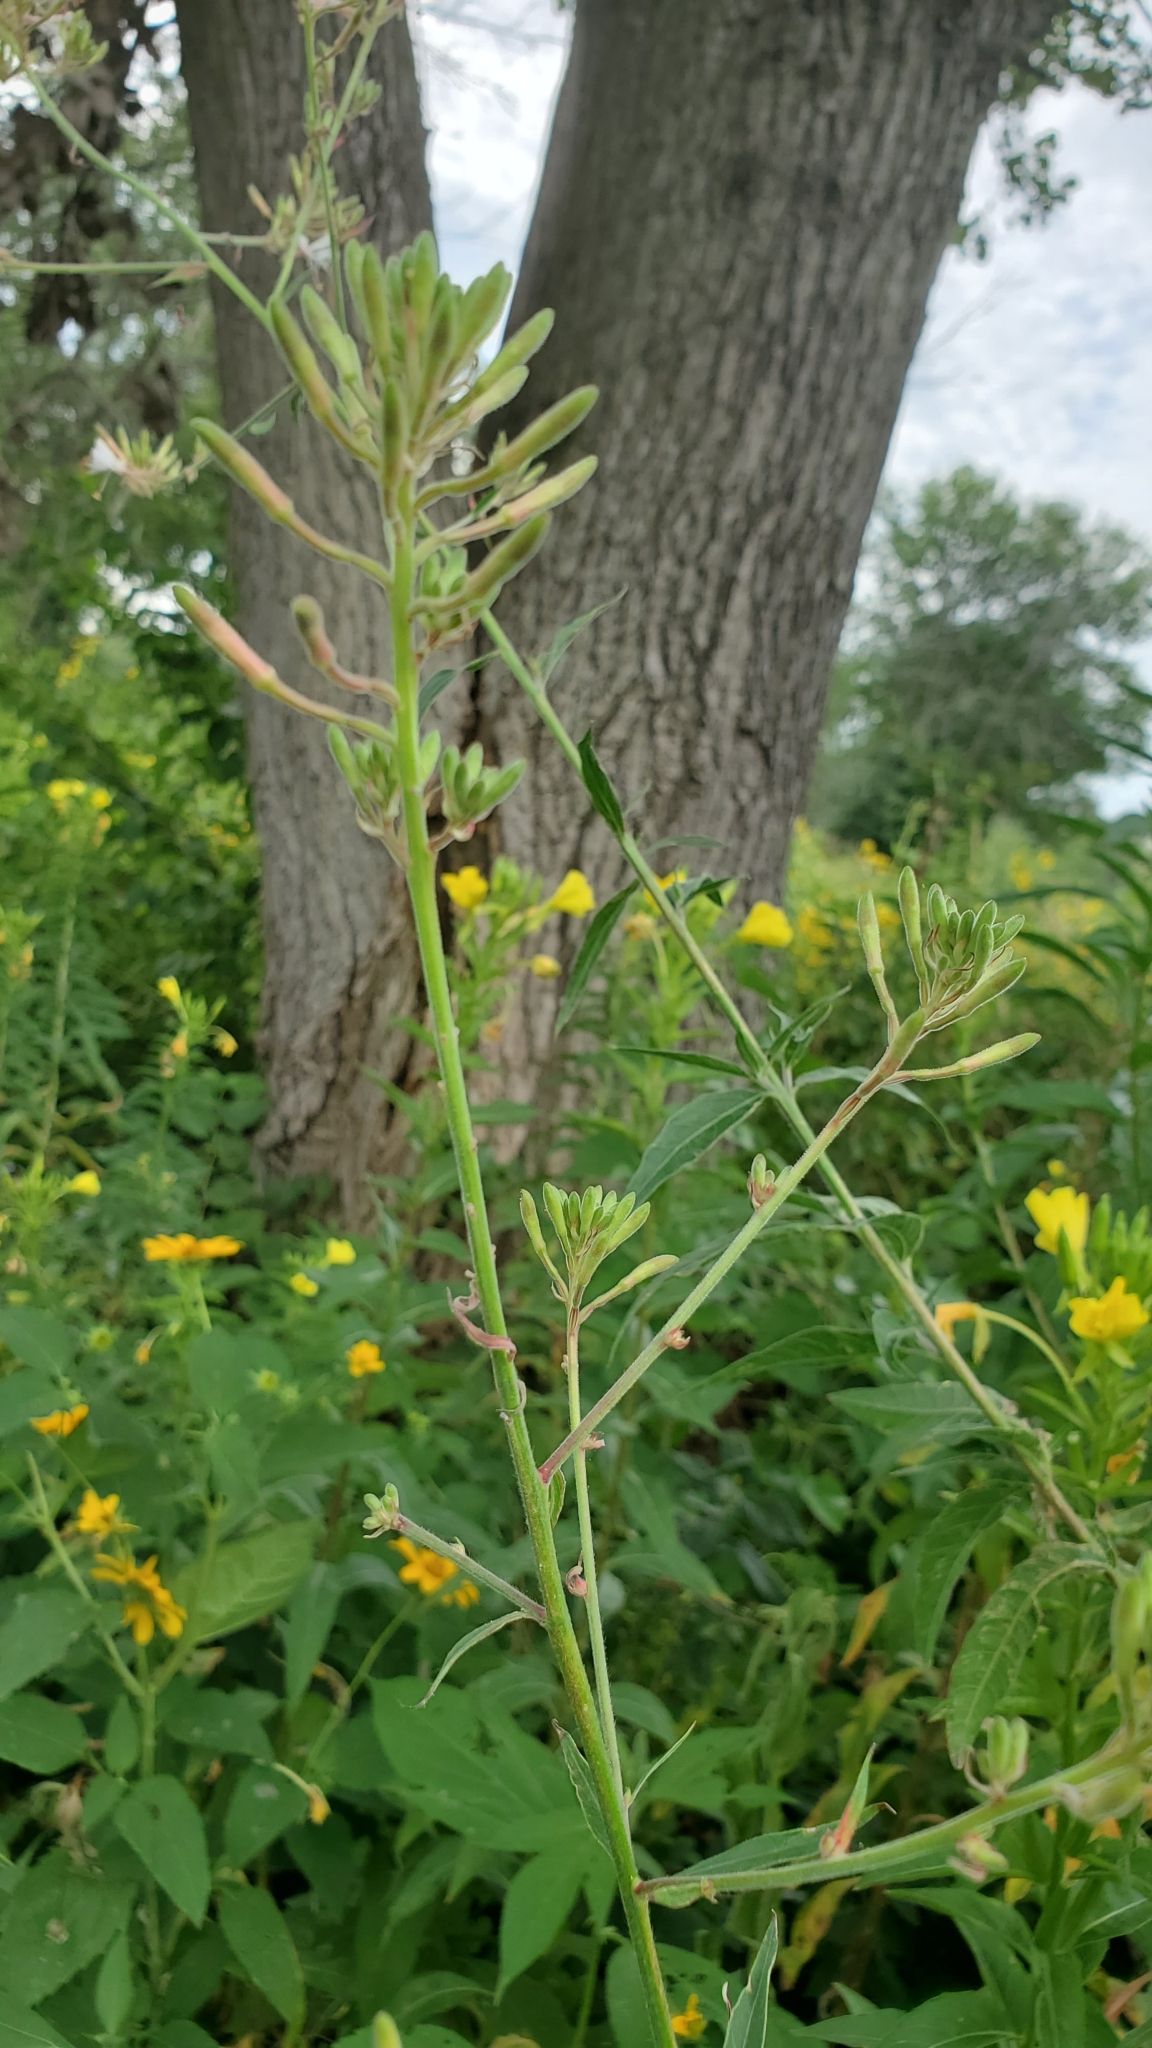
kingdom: Plantae
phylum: Tracheophyta
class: Magnoliopsida
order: Myrtales
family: Onagraceae
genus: Oenothera
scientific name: Oenothera gaura
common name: Biennial beeblossom
